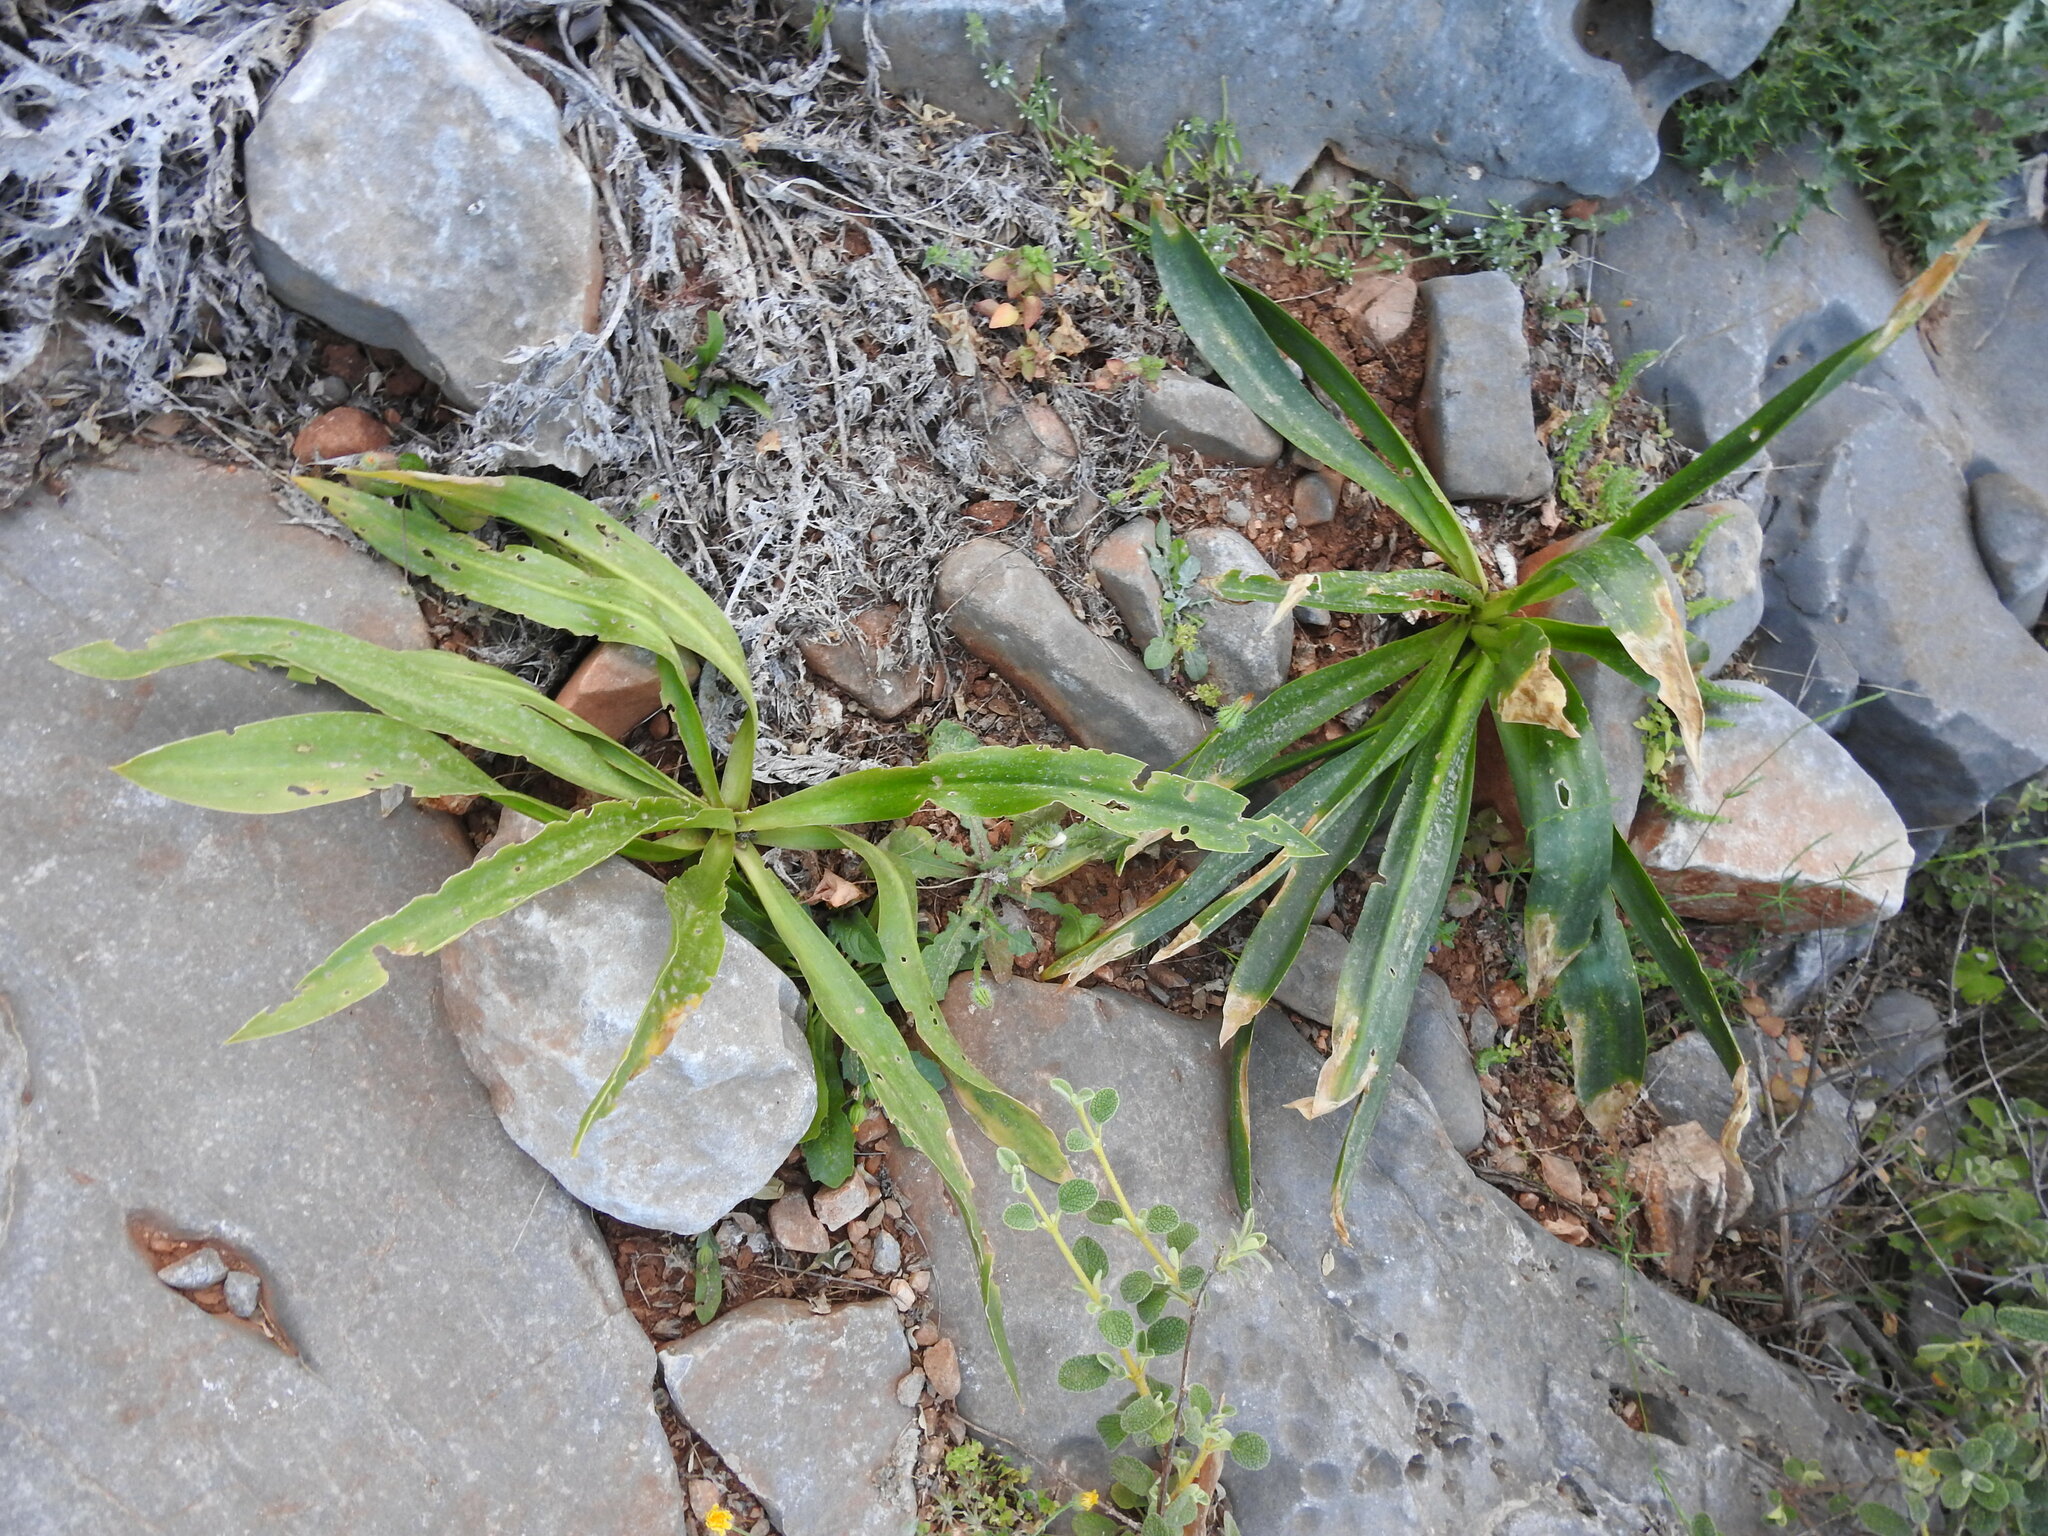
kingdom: Plantae
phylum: Tracheophyta
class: Liliopsida
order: Asparagales
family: Asparagaceae
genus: Drimia
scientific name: Drimia numidica
